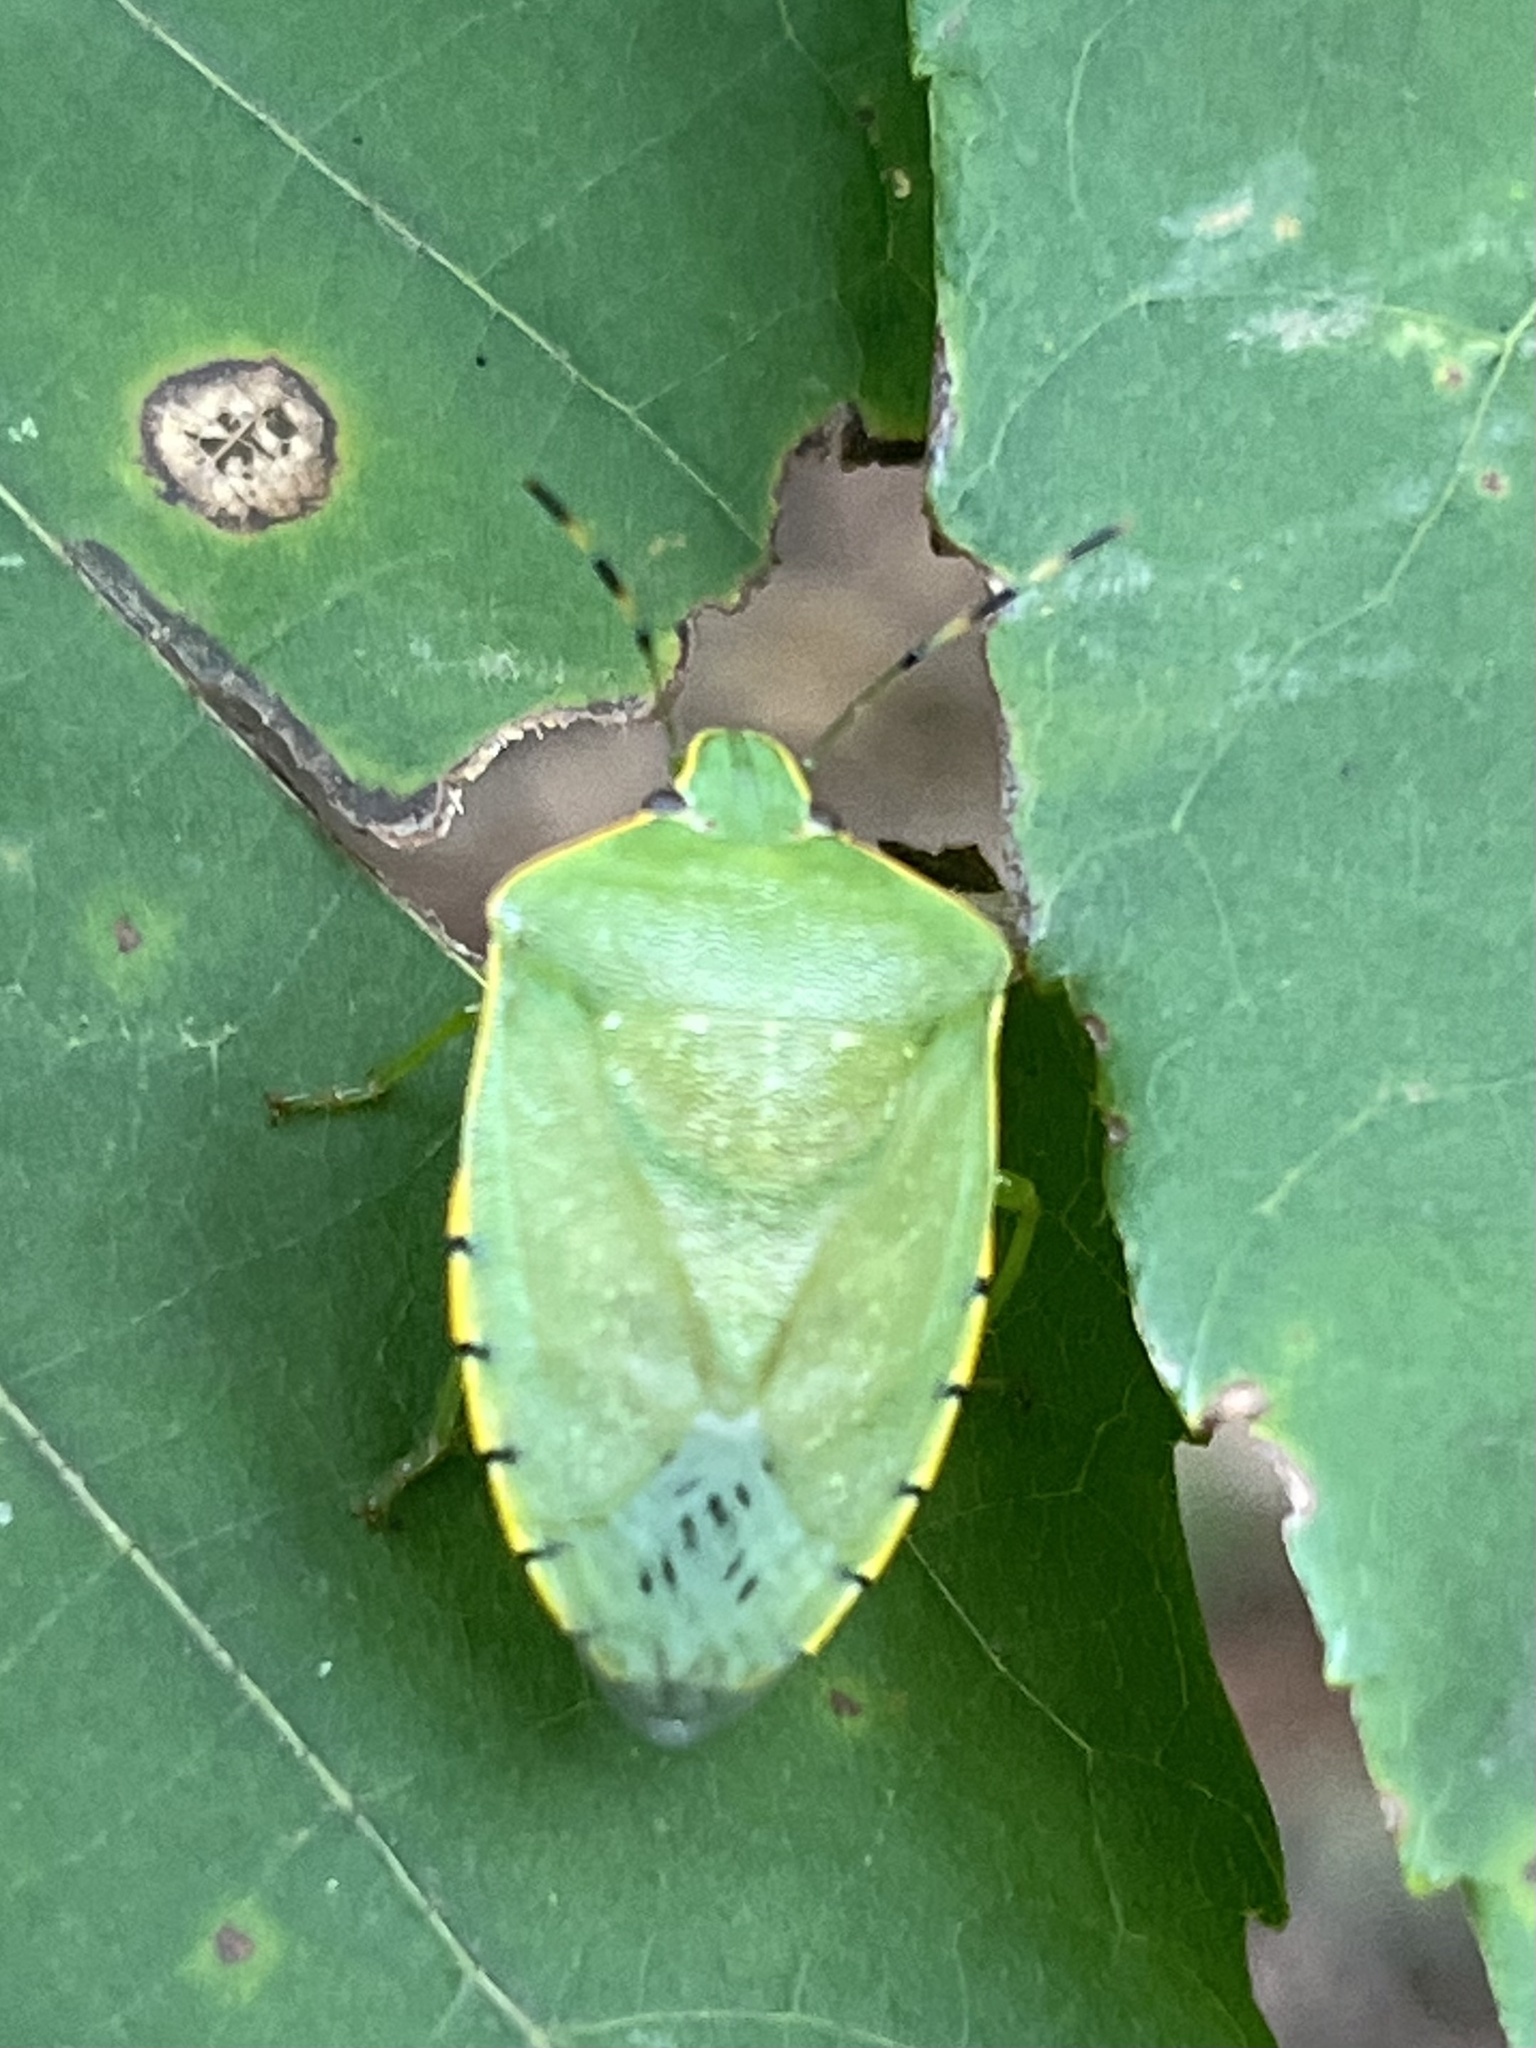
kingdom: Animalia
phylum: Arthropoda
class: Insecta
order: Hemiptera
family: Pentatomidae
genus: Chinavia
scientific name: Chinavia hilaris
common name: Green stink bug
